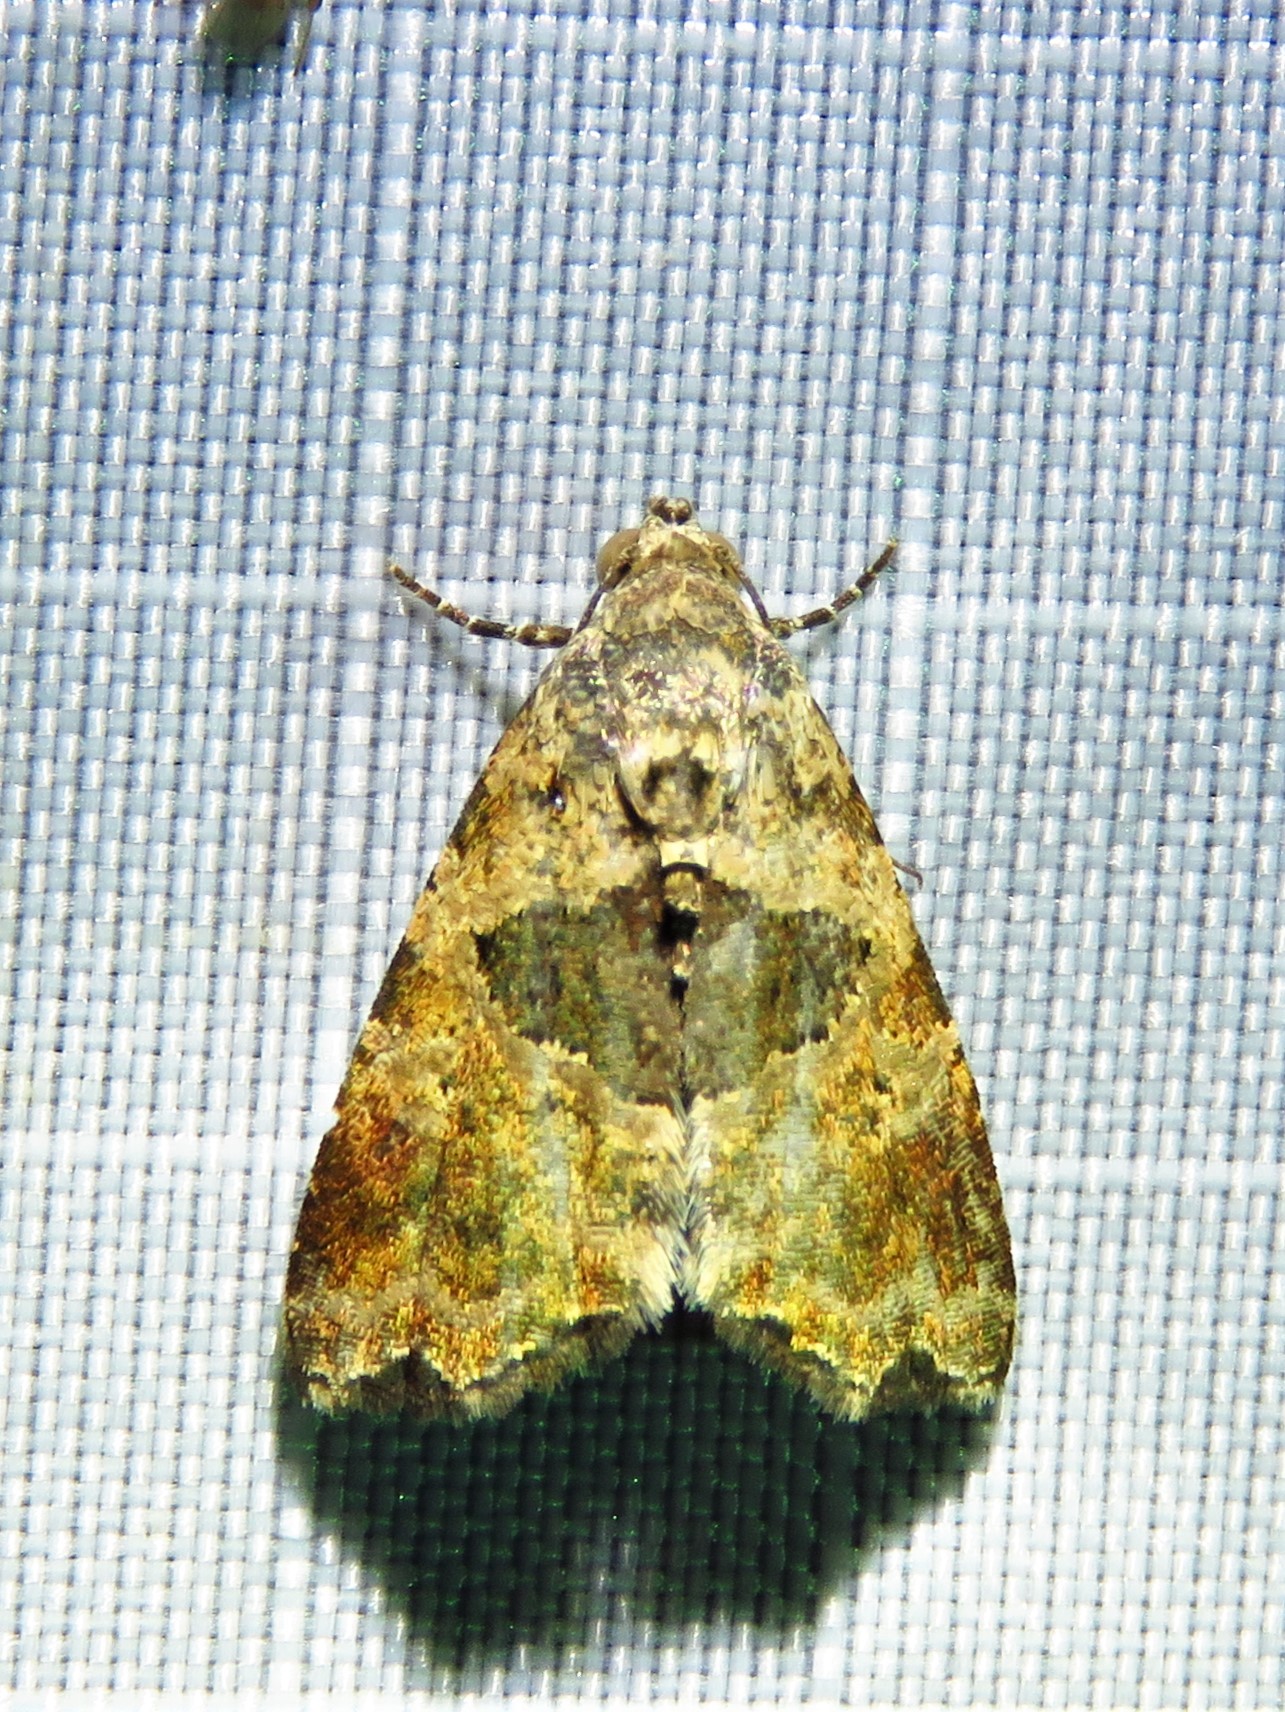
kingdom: Animalia
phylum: Arthropoda
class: Insecta
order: Lepidoptera
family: Noctuidae
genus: Cobubatha
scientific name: Cobubatha metaspilaris
